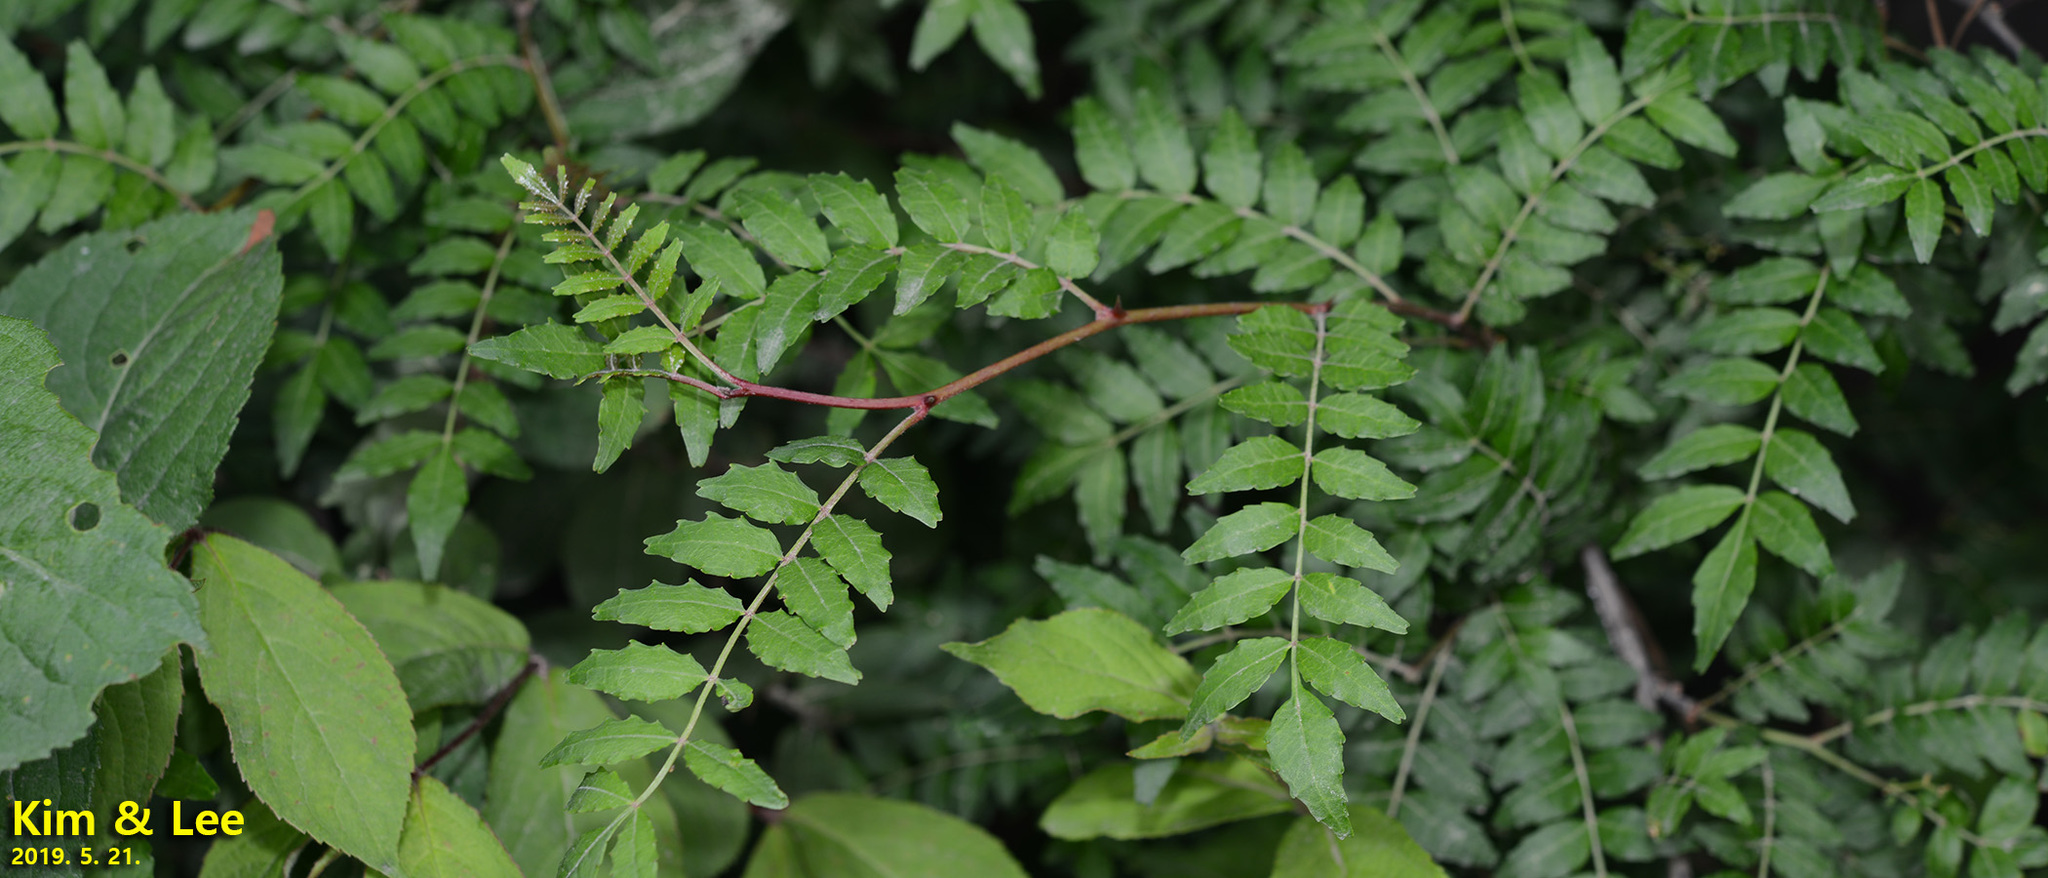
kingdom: Plantae
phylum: Tracheophyta
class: Magnoliopsida
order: Sapindales
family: Rutaceae
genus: Zanthoxylum
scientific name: Zanthoxylum piperitum
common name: Japanese-pepper
